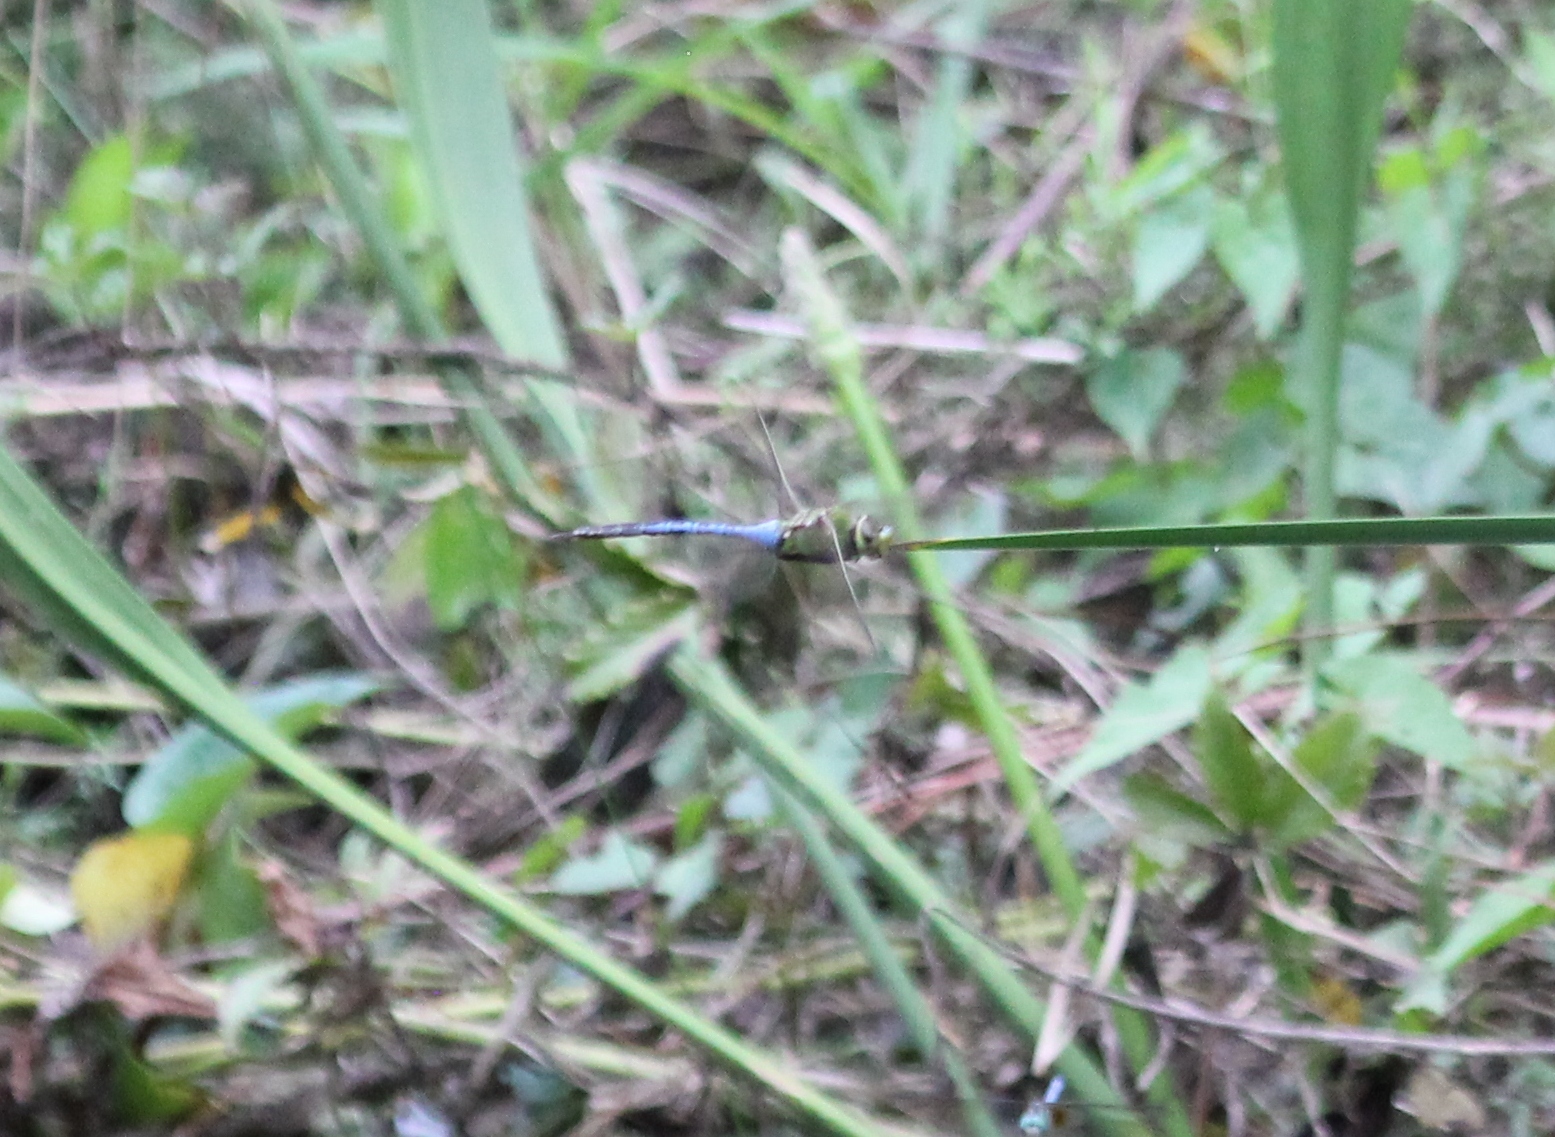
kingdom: Animalia
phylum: Arthropoda
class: Insecta
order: Odonata
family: Aeshnidae
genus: Anax
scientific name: Anax junius
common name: Common green darner
